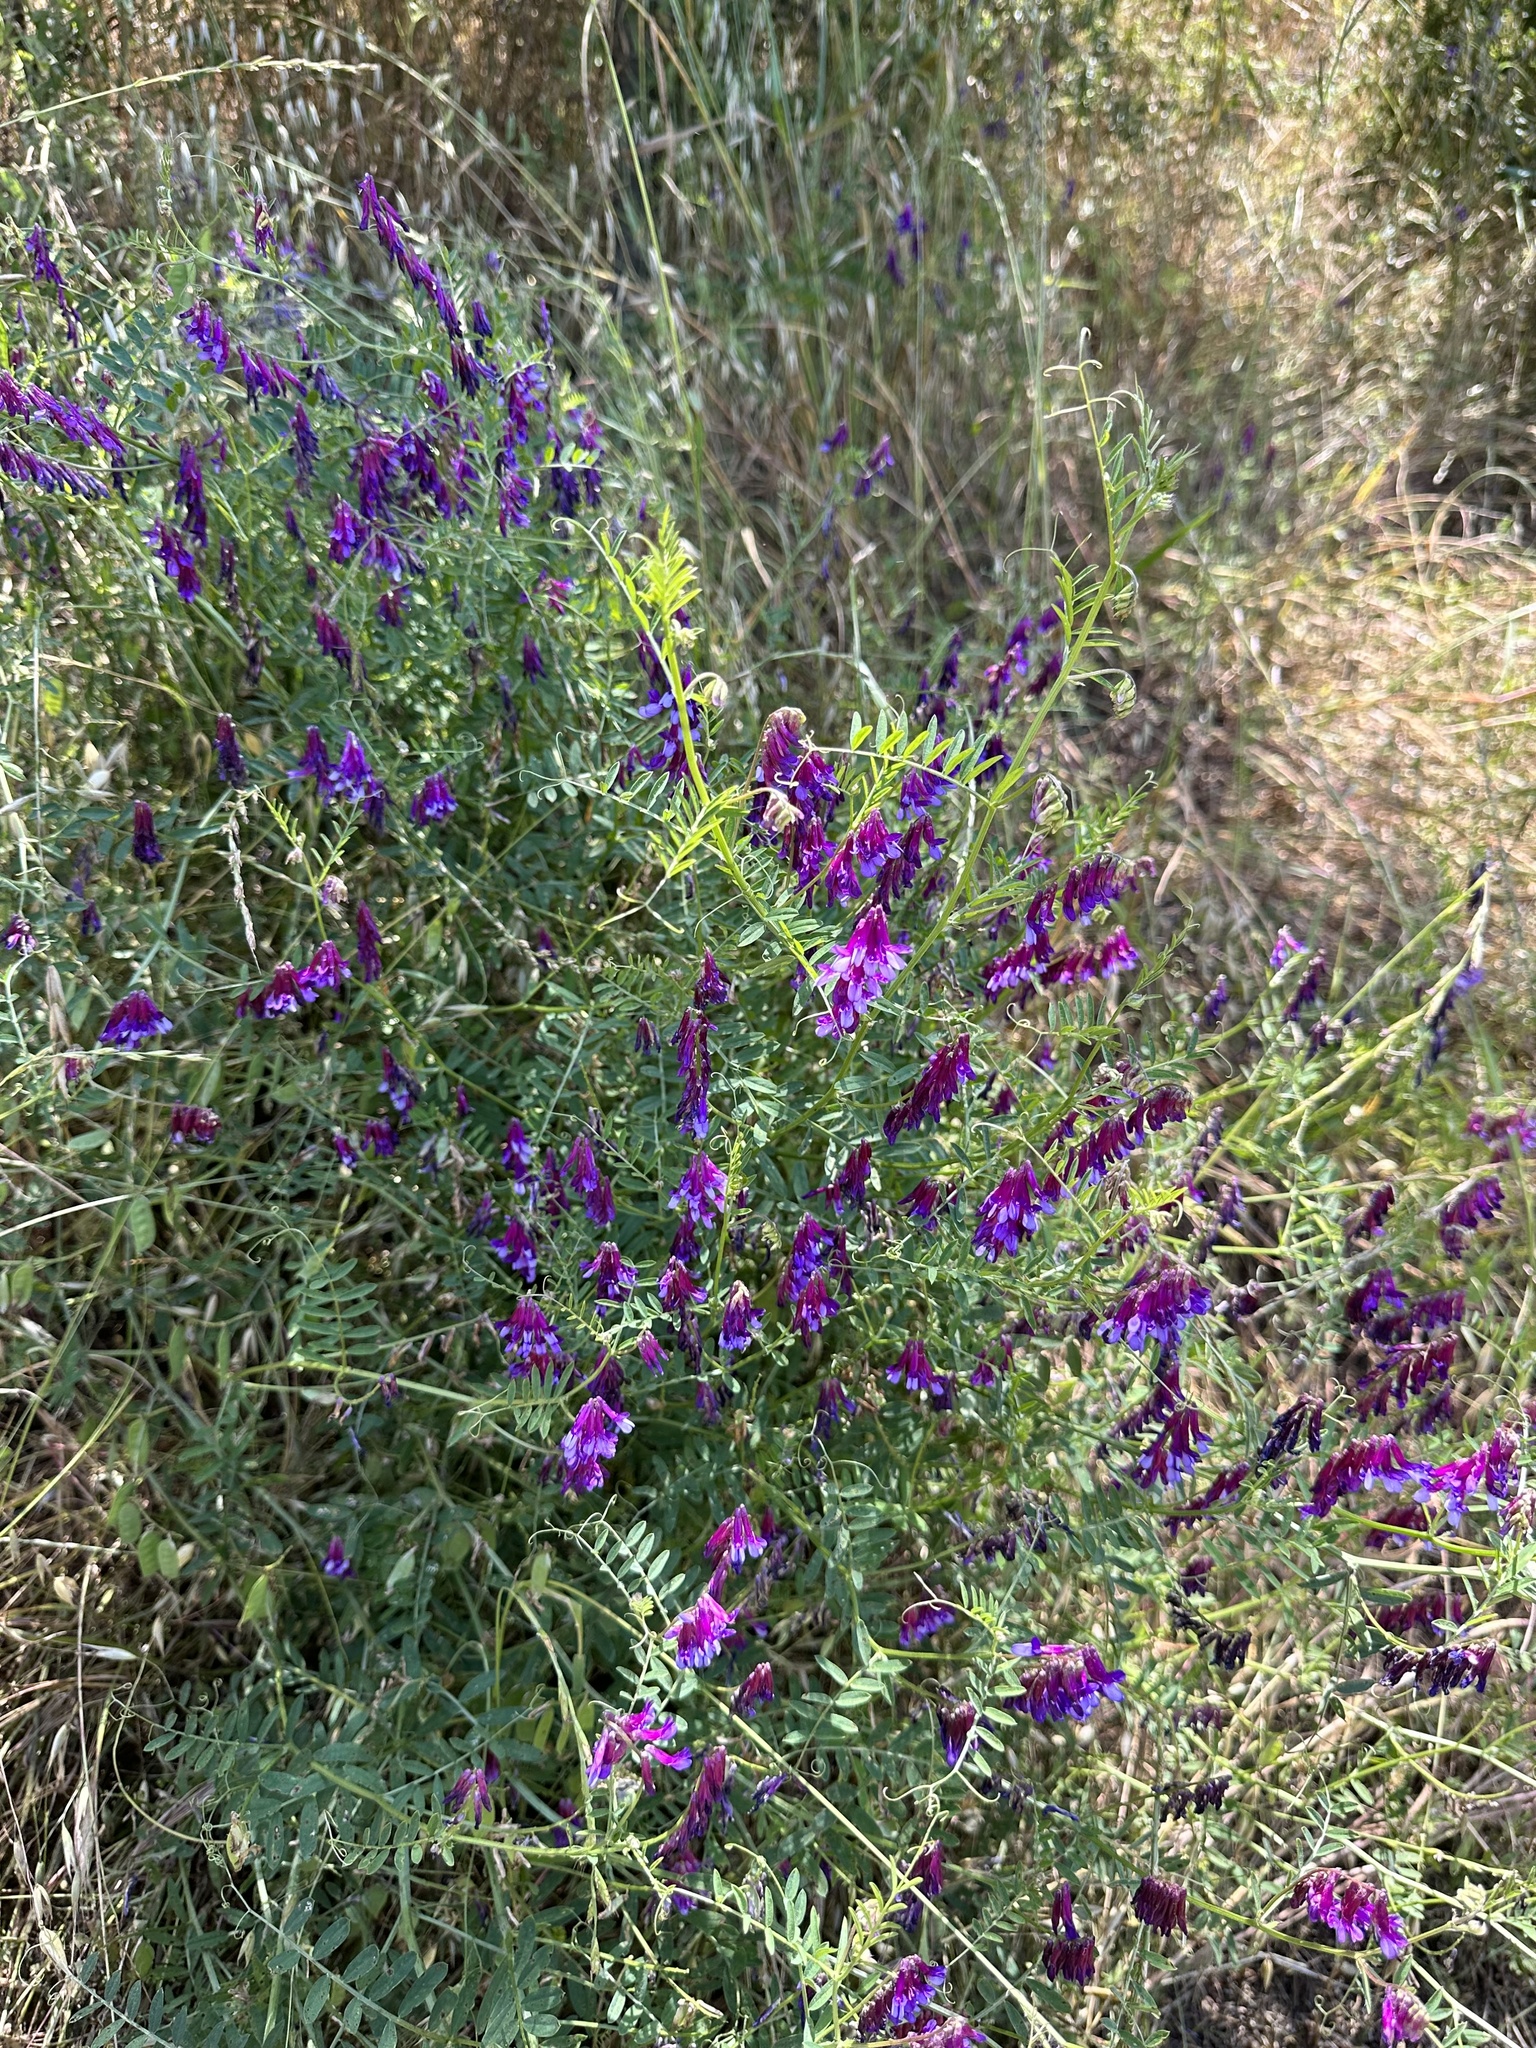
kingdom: Plantae
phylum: Tracheophyta
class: Magnoliopsida
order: Fabales
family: Fabaceae
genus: Vicia
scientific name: Vicia villosa
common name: Fodder vetch
